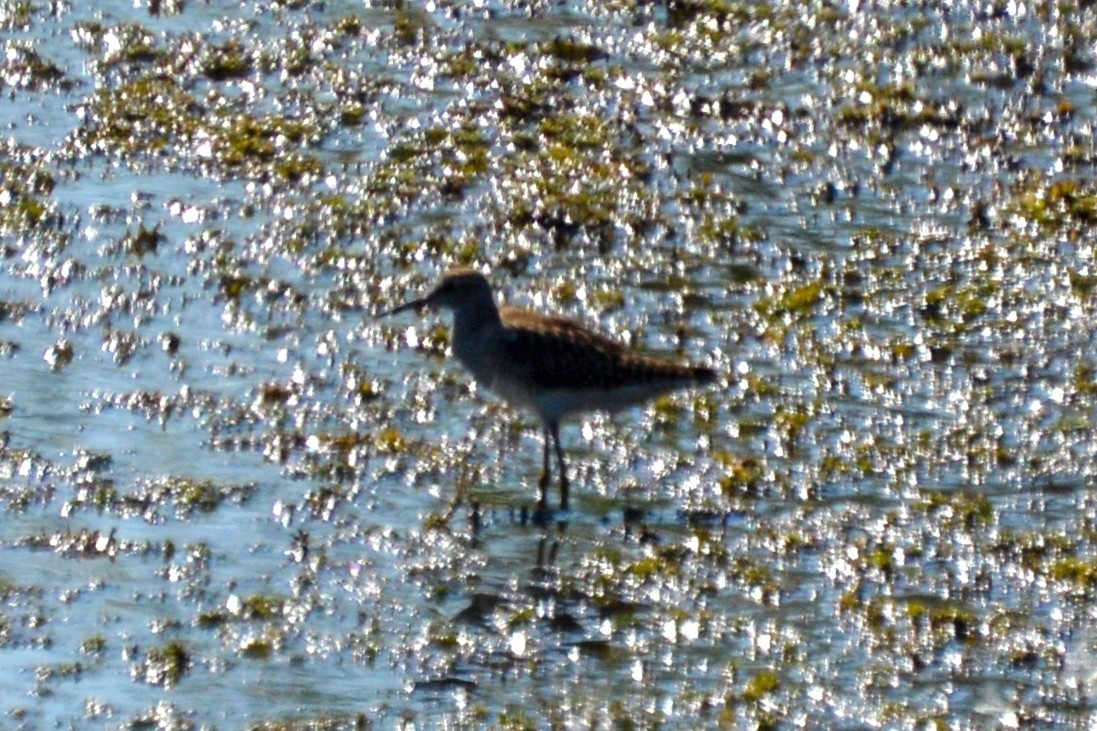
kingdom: Animalia
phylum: Chordata
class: Aves
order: Charadriiformes
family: Scolopacidae
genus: Tringa
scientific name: Tringa glareola
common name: Wood sandpiper
